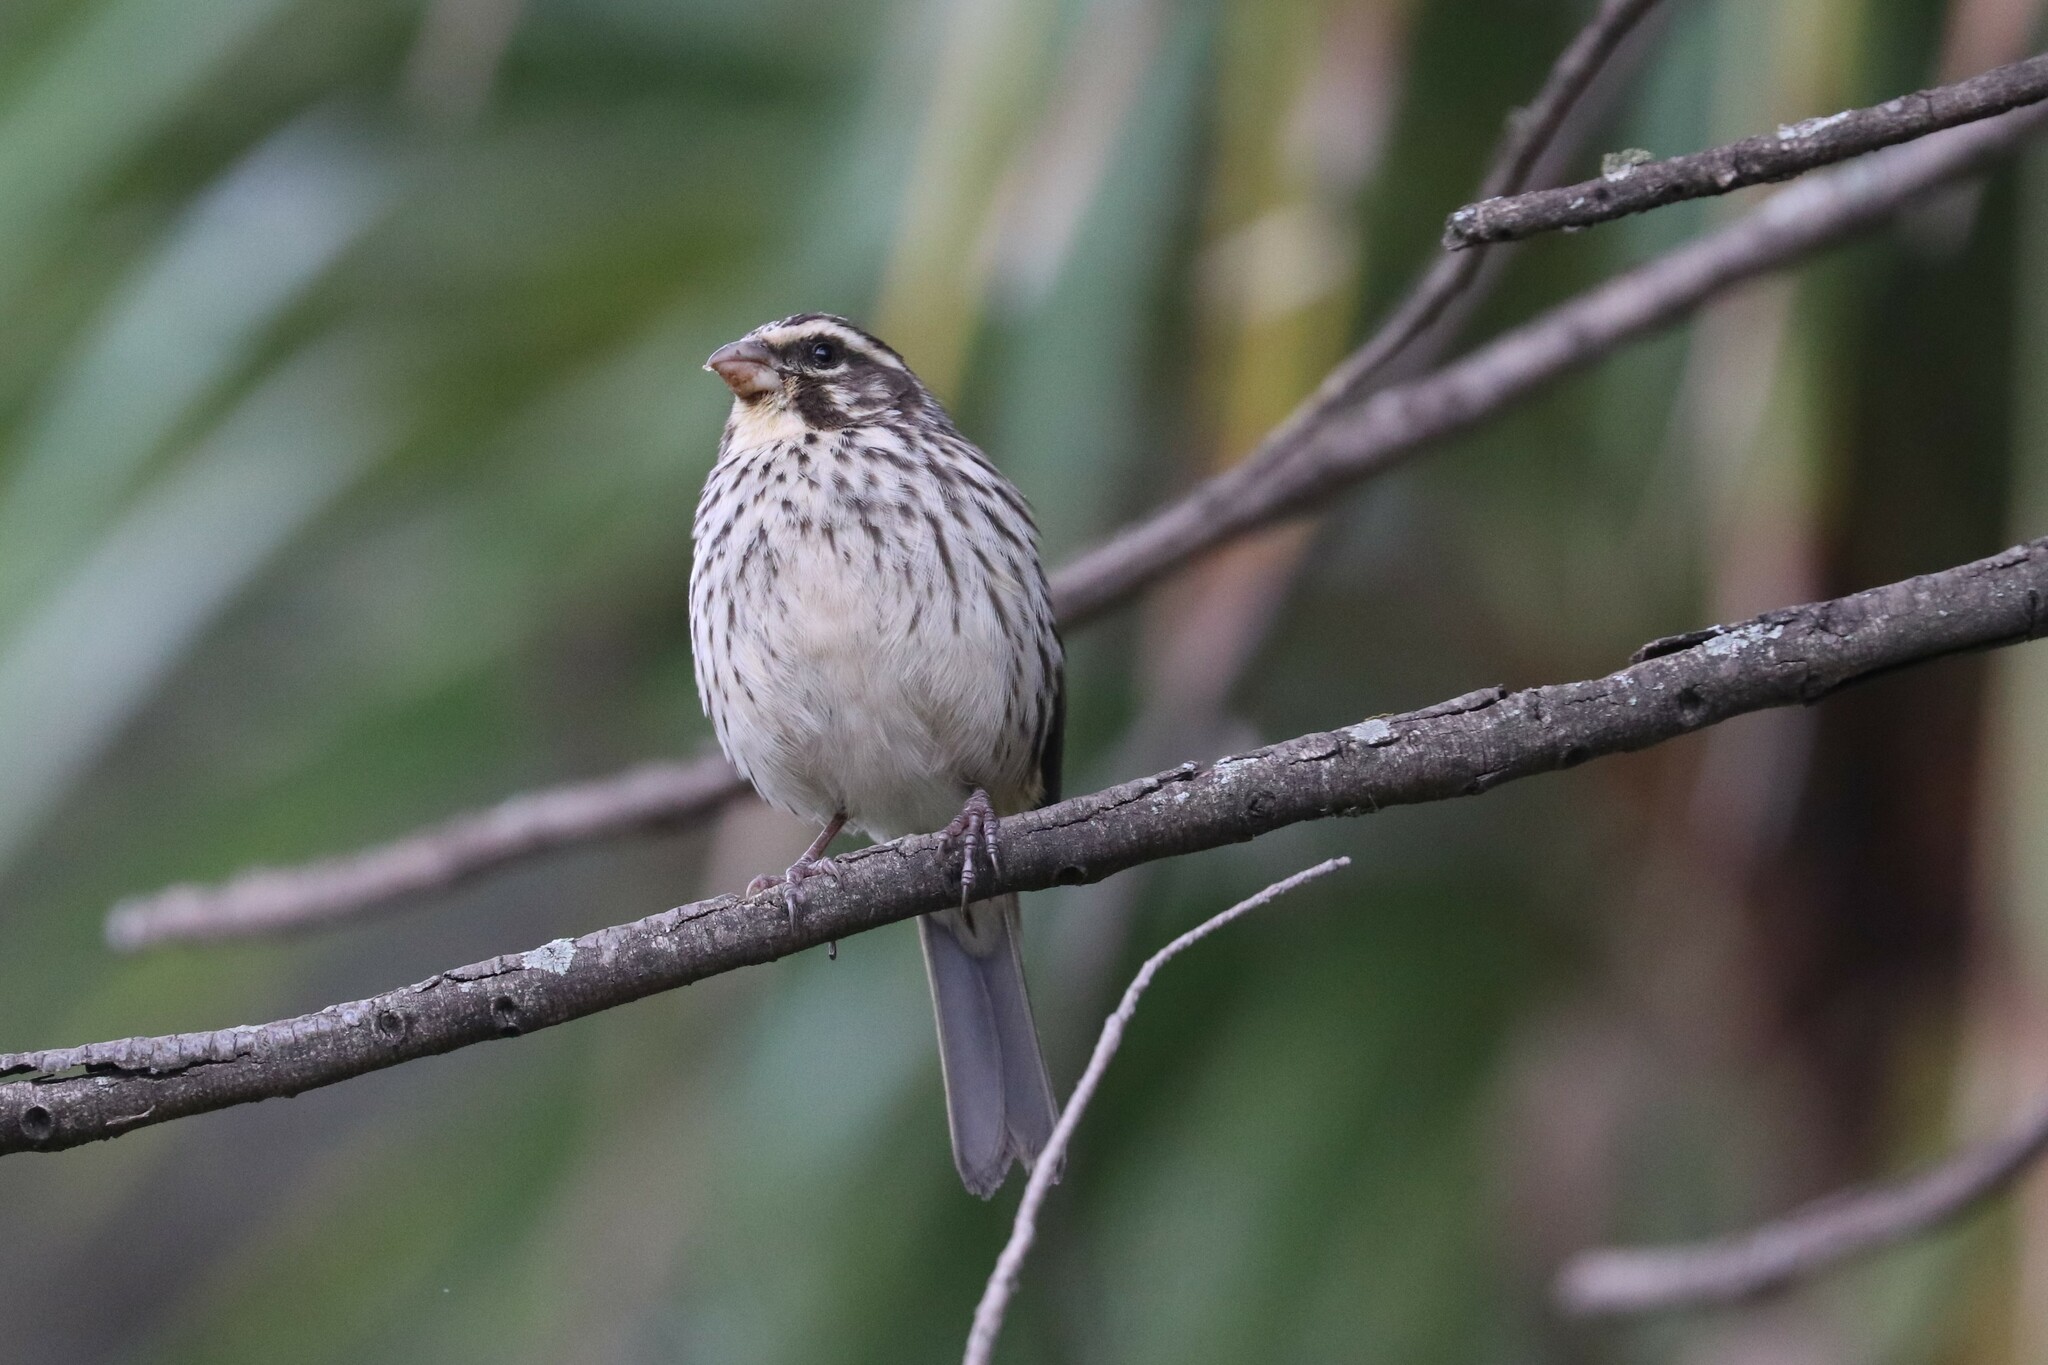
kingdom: Animalia
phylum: Chordata
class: Aves
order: Passeriformes
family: Fringillidae
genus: Crithagra
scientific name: Crithagra striolata
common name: Streaky seedeater
